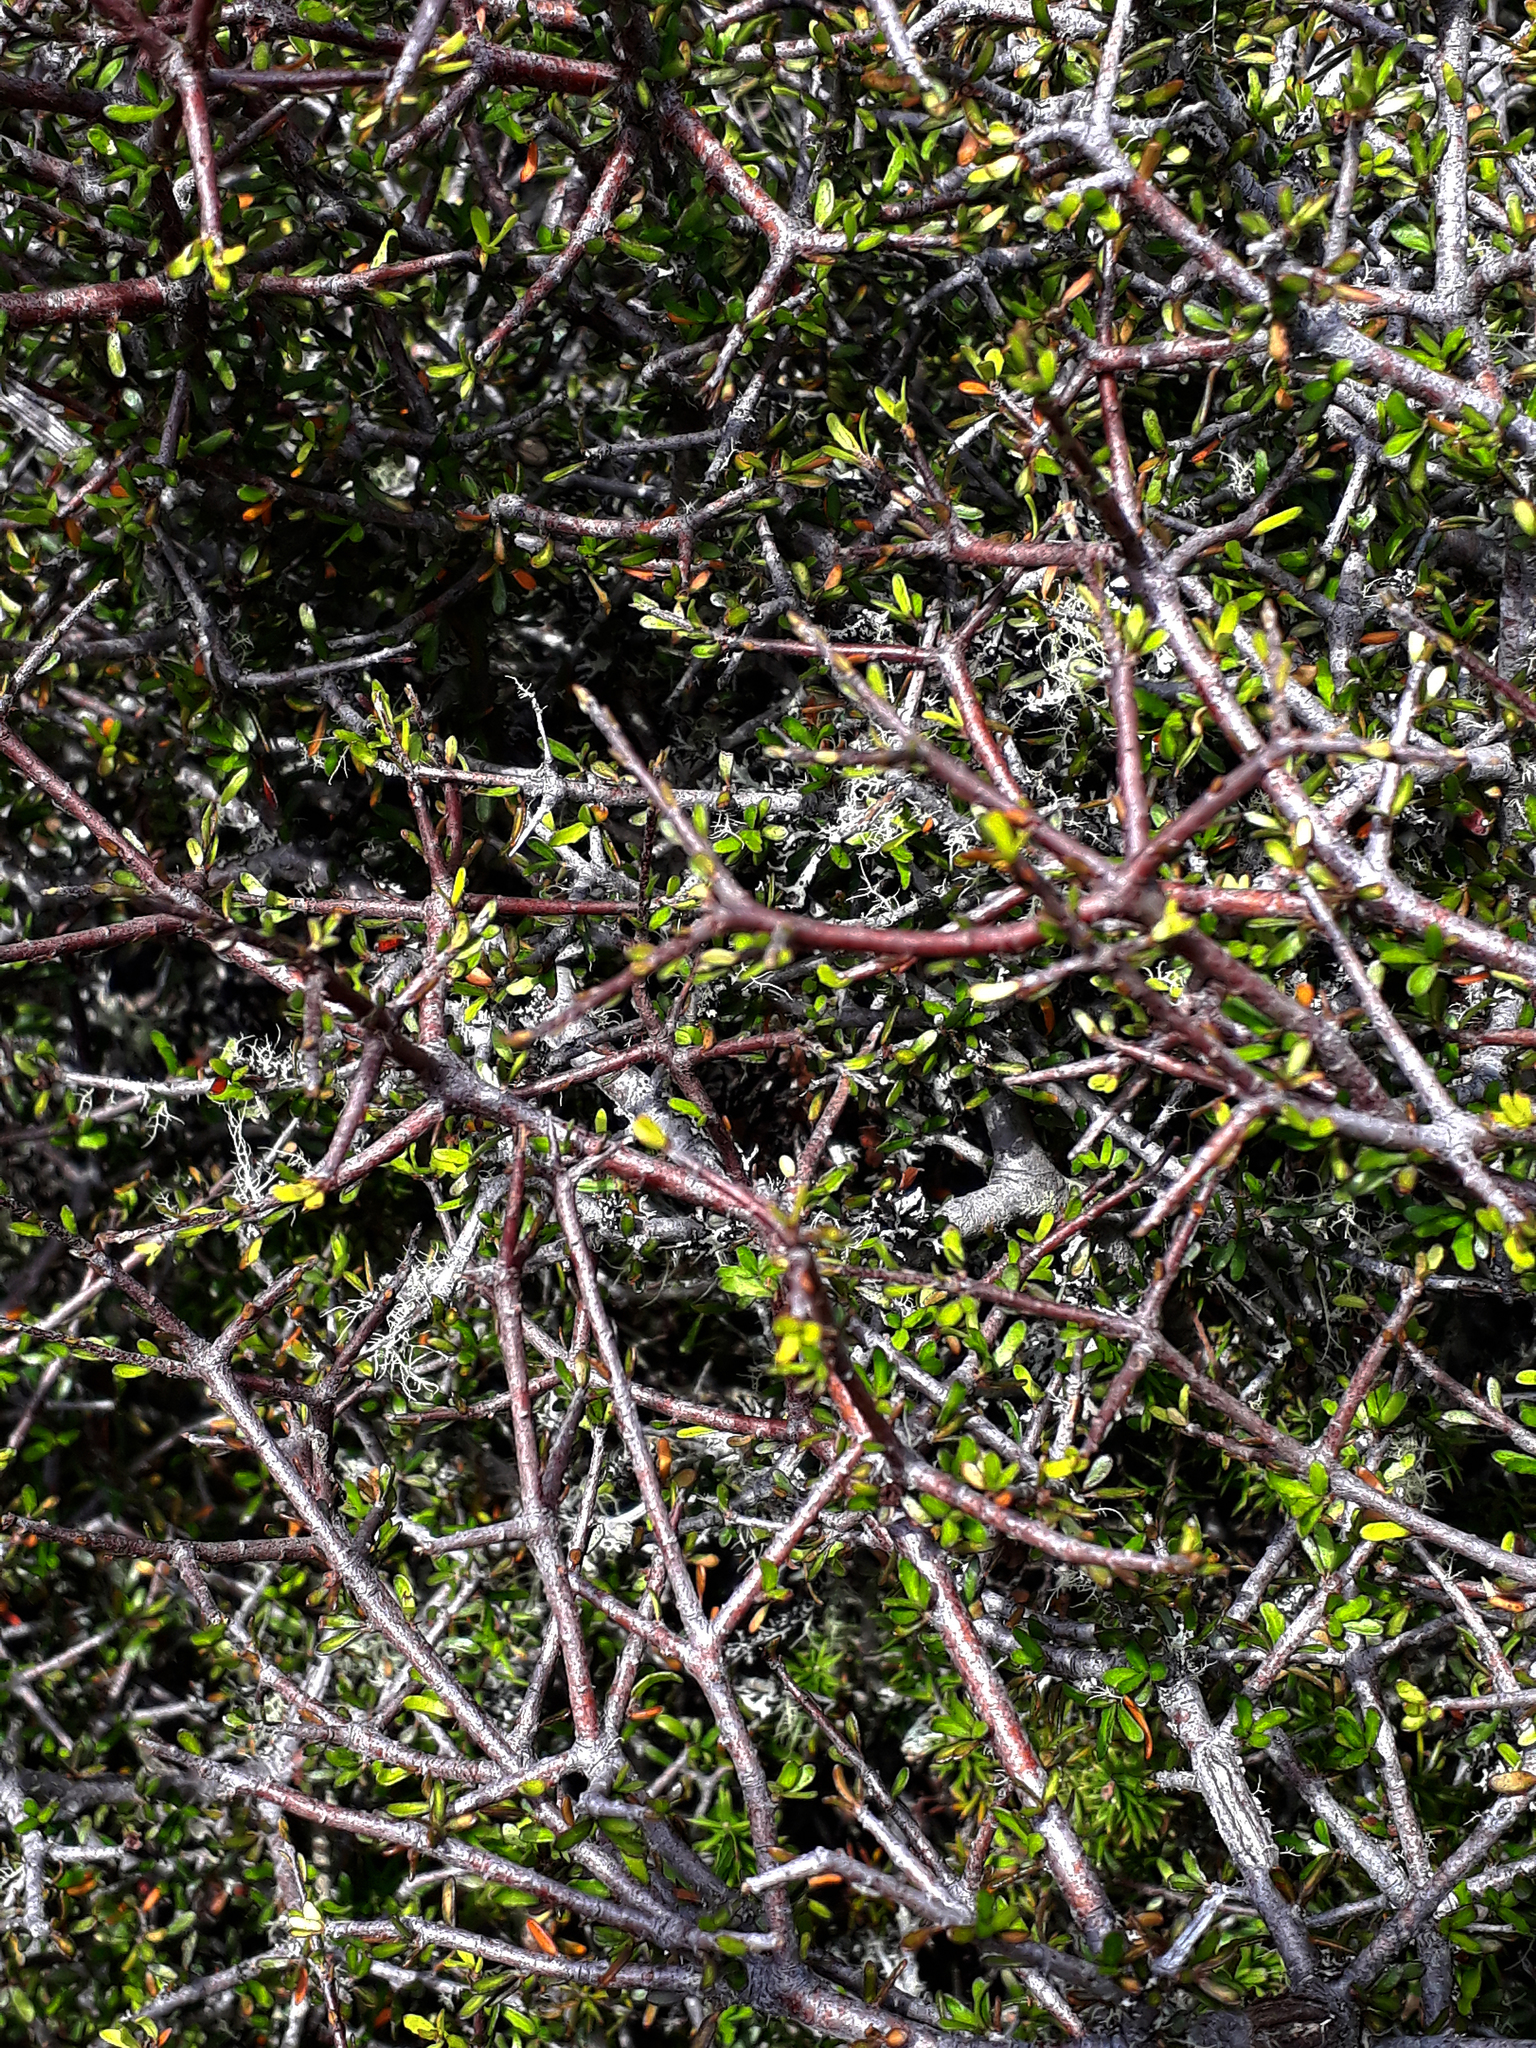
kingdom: Plantae
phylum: Tracheophyta
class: Magnoliopsida
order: Apiales
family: Pittosporaceae
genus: Pittosporum
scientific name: Pittosporum divaricatum
